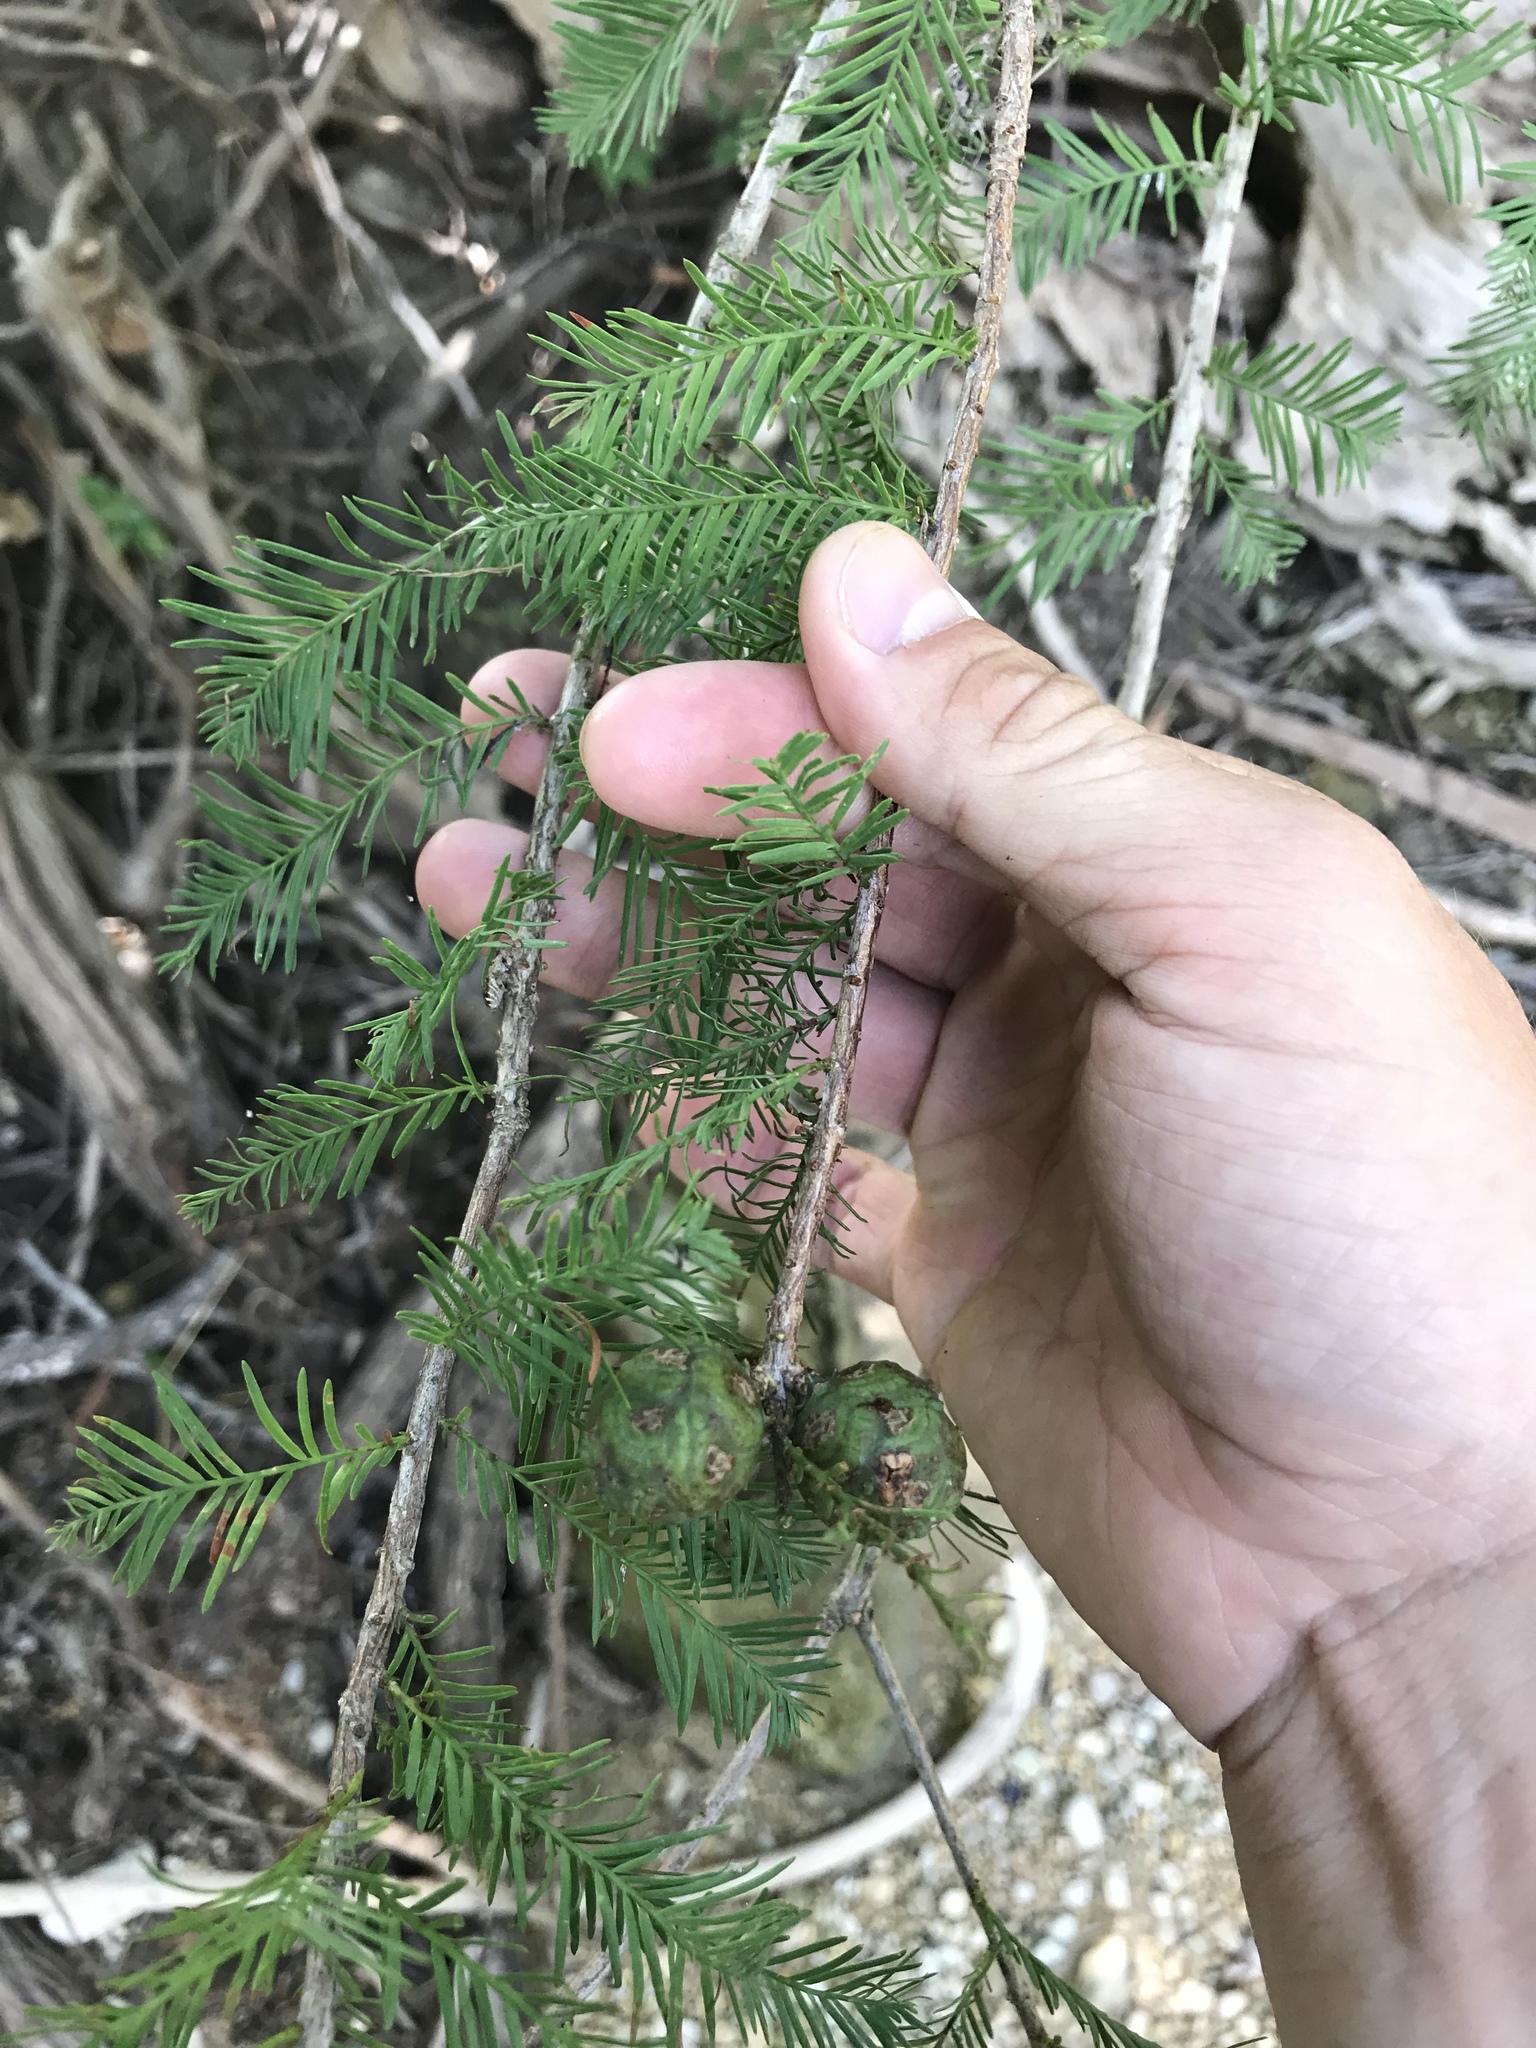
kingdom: Plantae
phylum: Tracheophyta
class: Pinopsida
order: Pinales
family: Cupressaceae
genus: Taxodium
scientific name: Taxodium distichum
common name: Bald cypress
